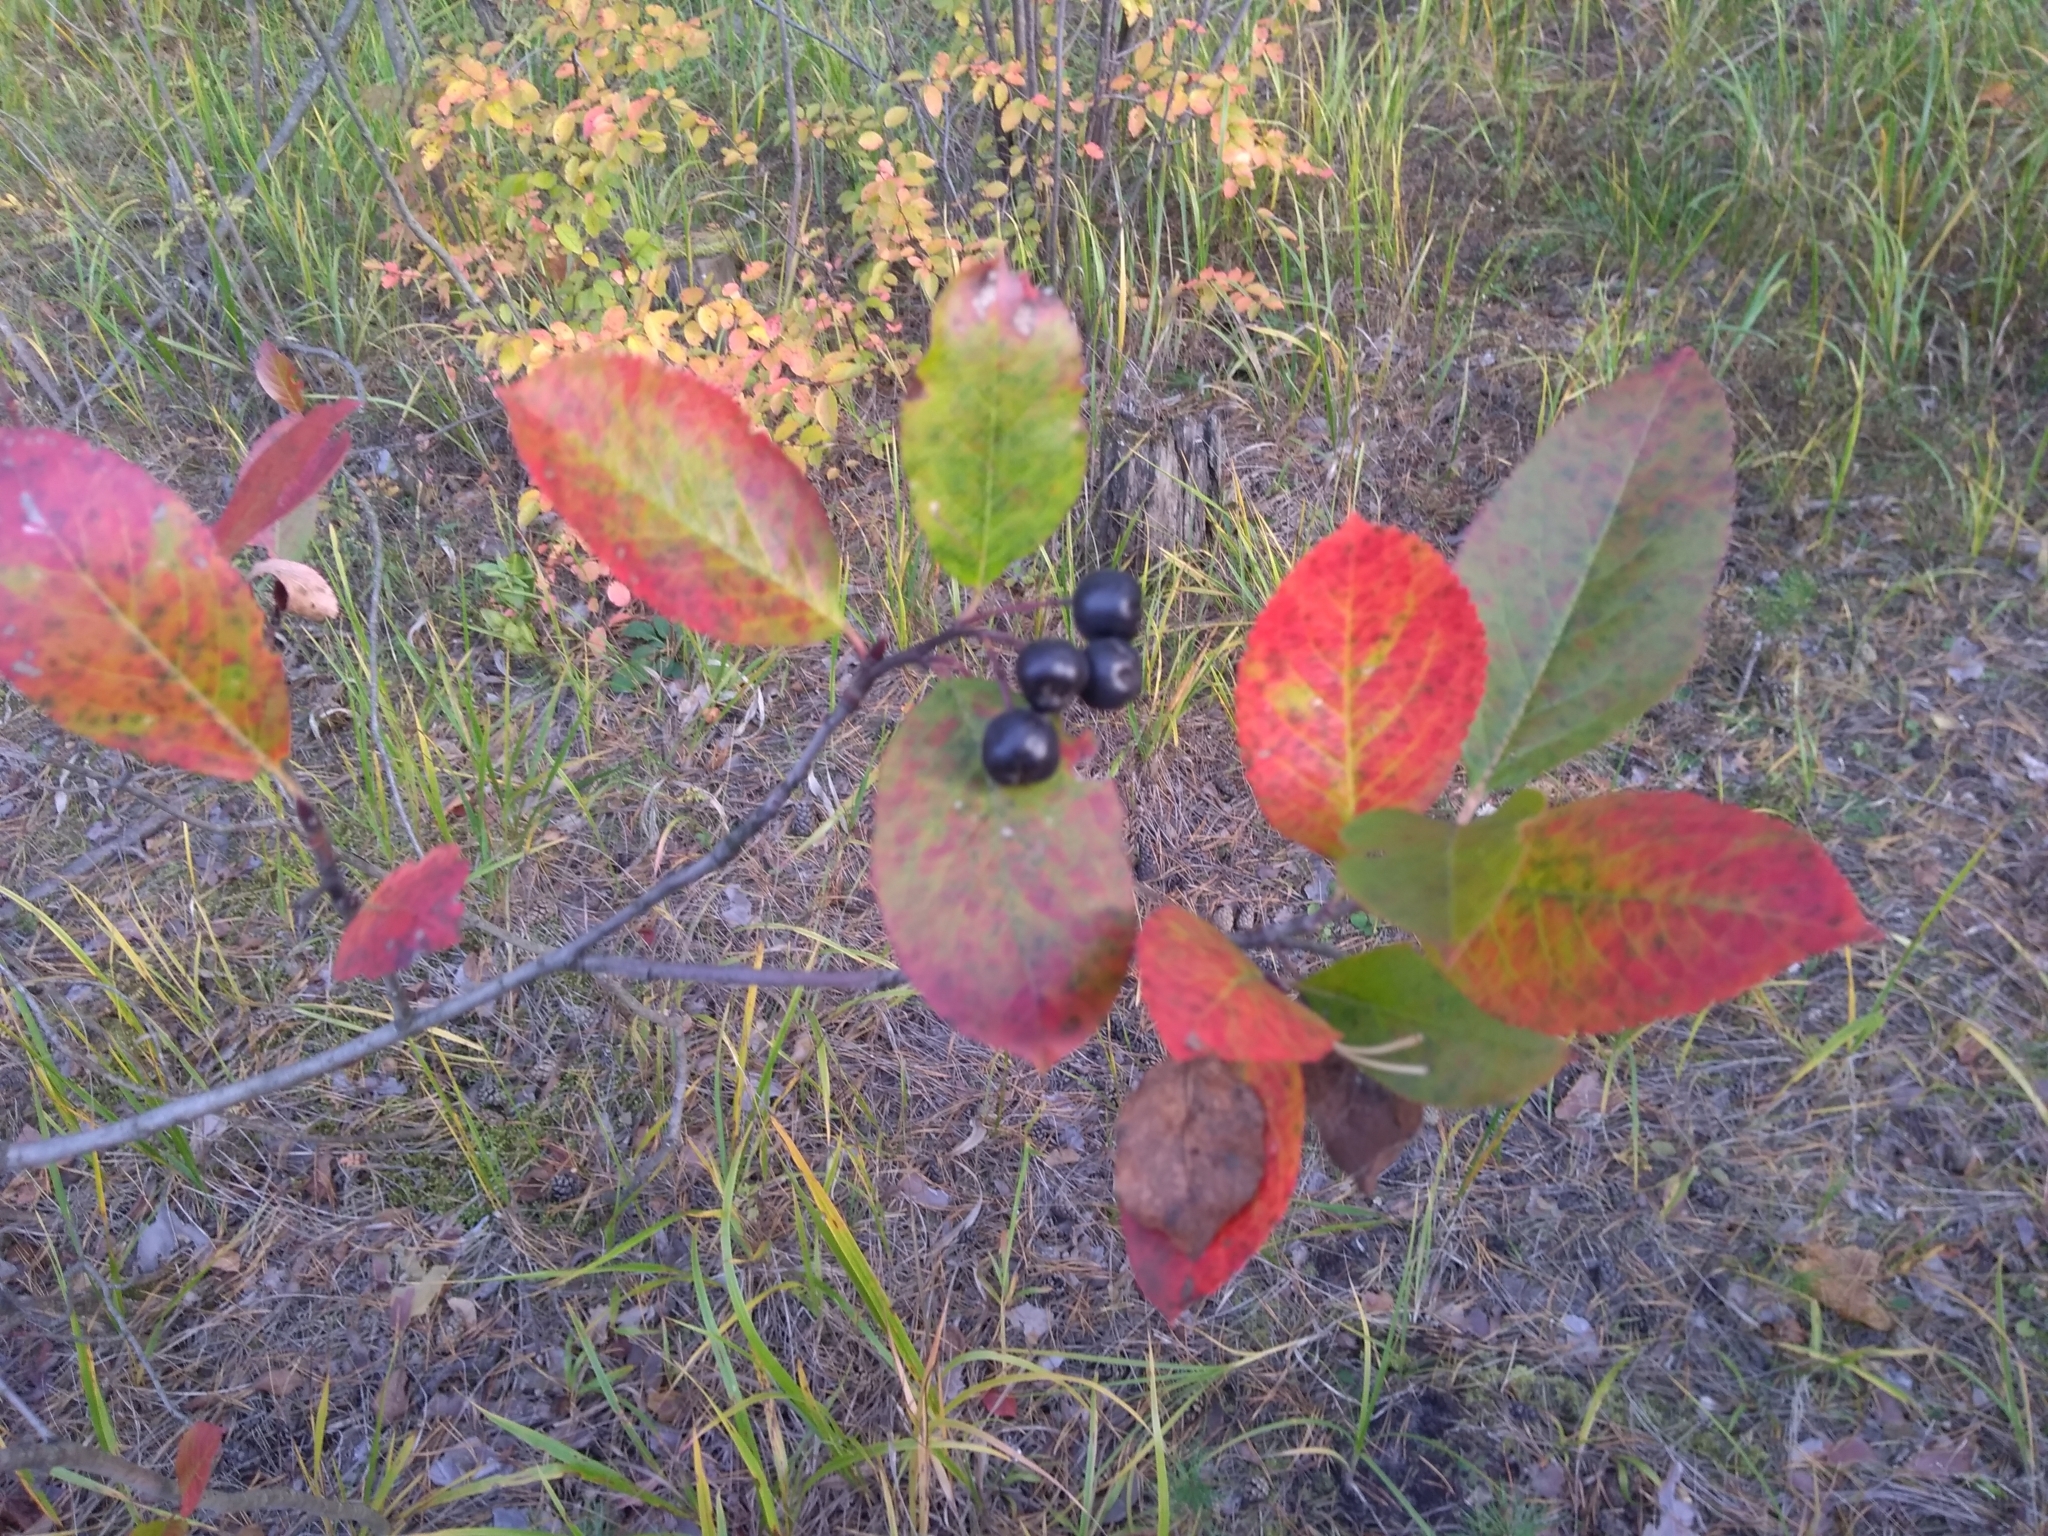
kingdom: Plantae
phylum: Tracheophyta
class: Magnoliopsida
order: Rosales
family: Rosaceae
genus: Sorbaronia
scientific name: Sorbaronia arsenii
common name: Arsène's mountain-ash
